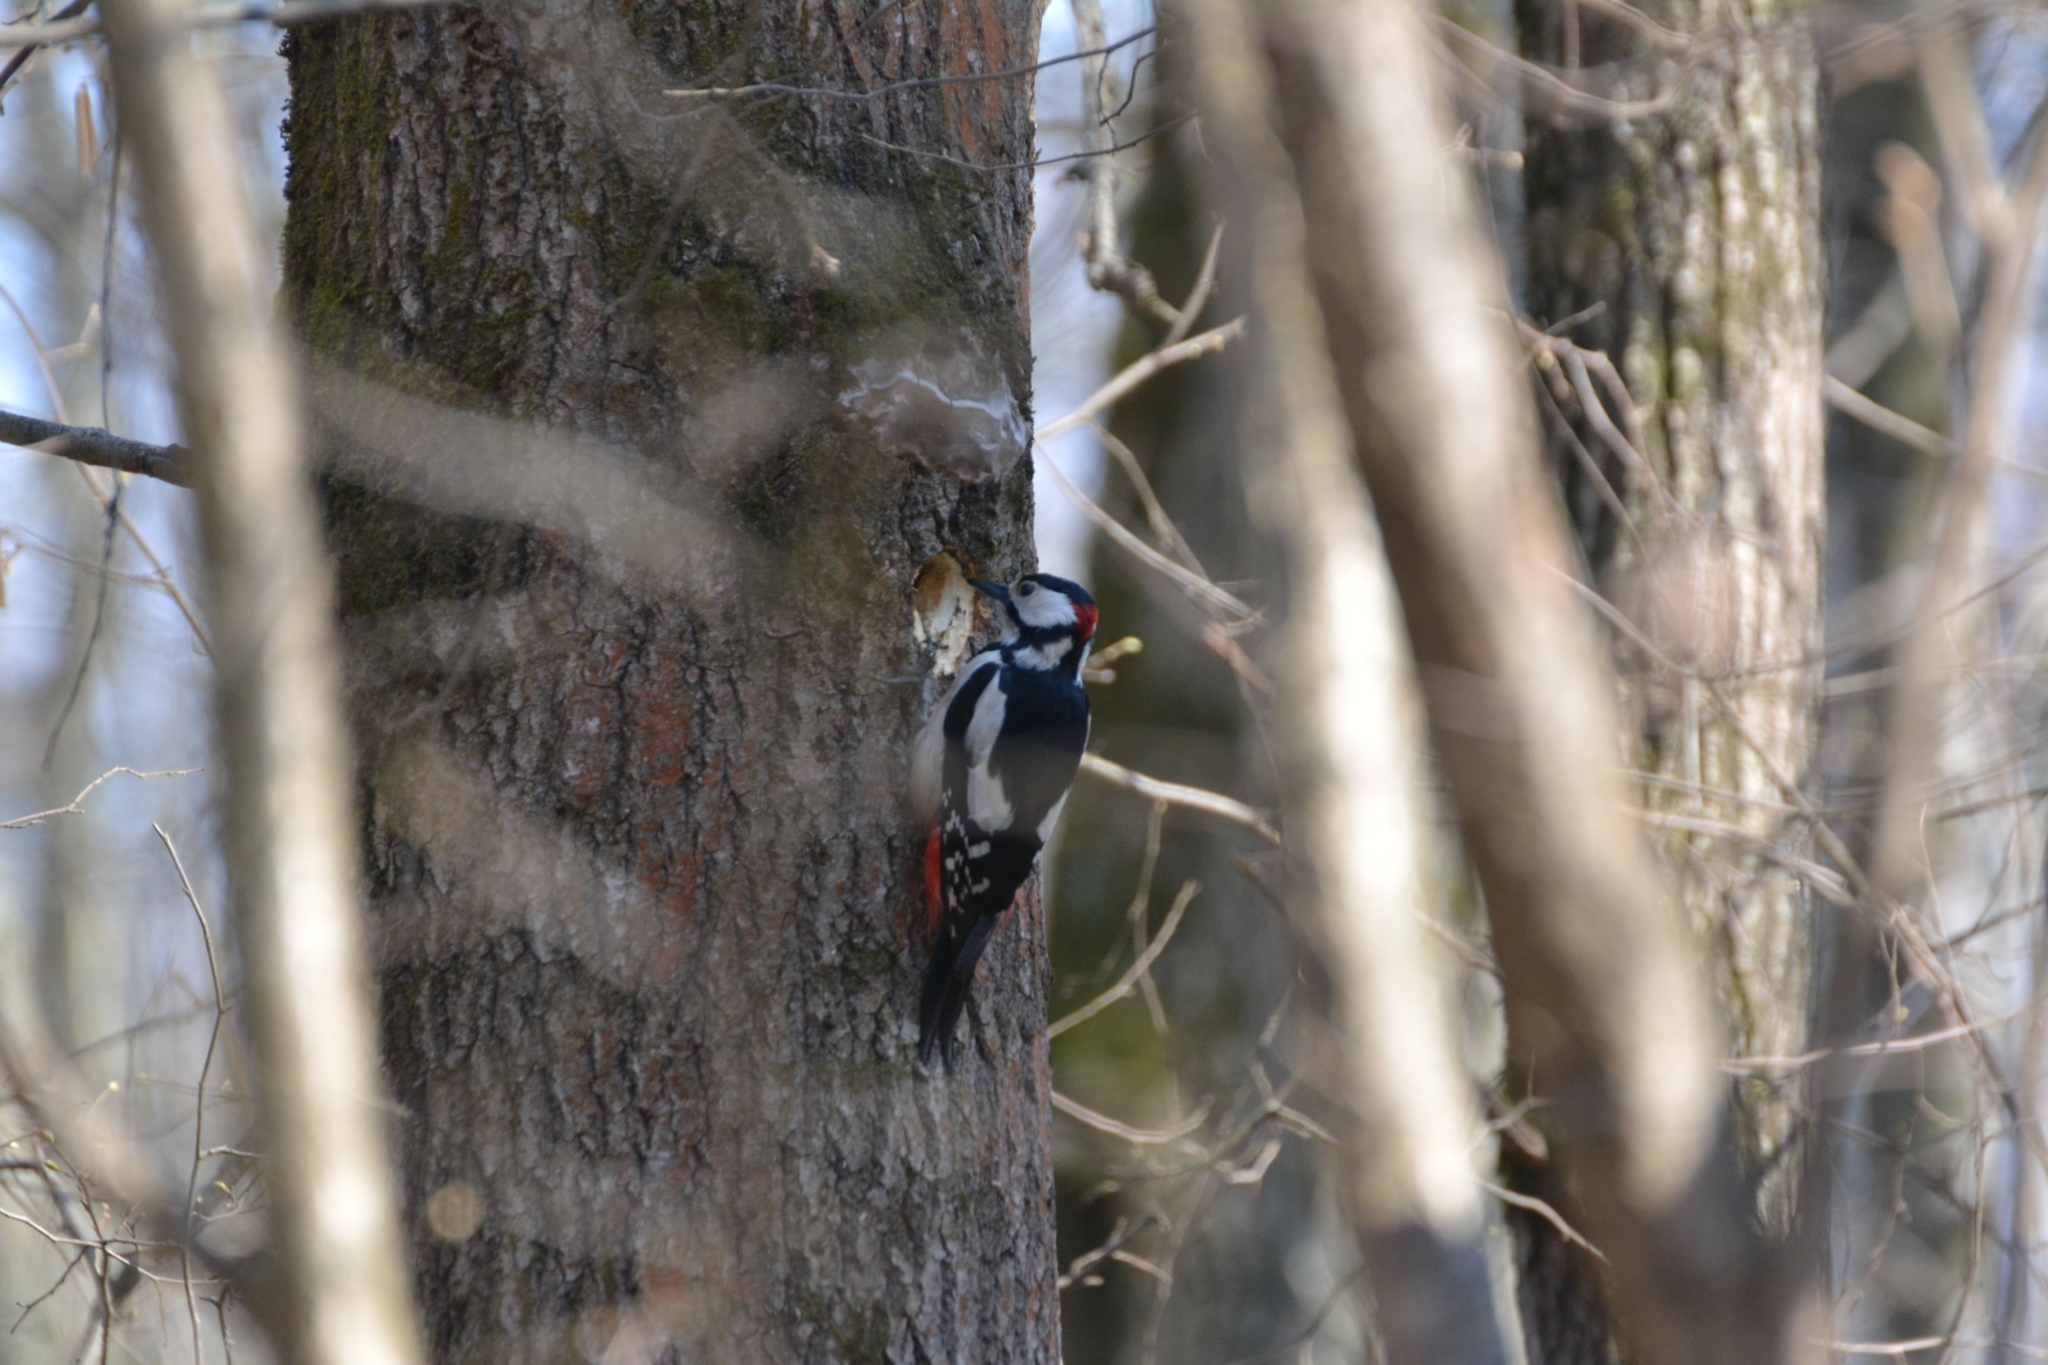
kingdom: Animalia
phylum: Chordata
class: Aves
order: Piciformes
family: Picidae
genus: Dendrocopos
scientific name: Dendrocopos major
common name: Great spotted woodpecker
